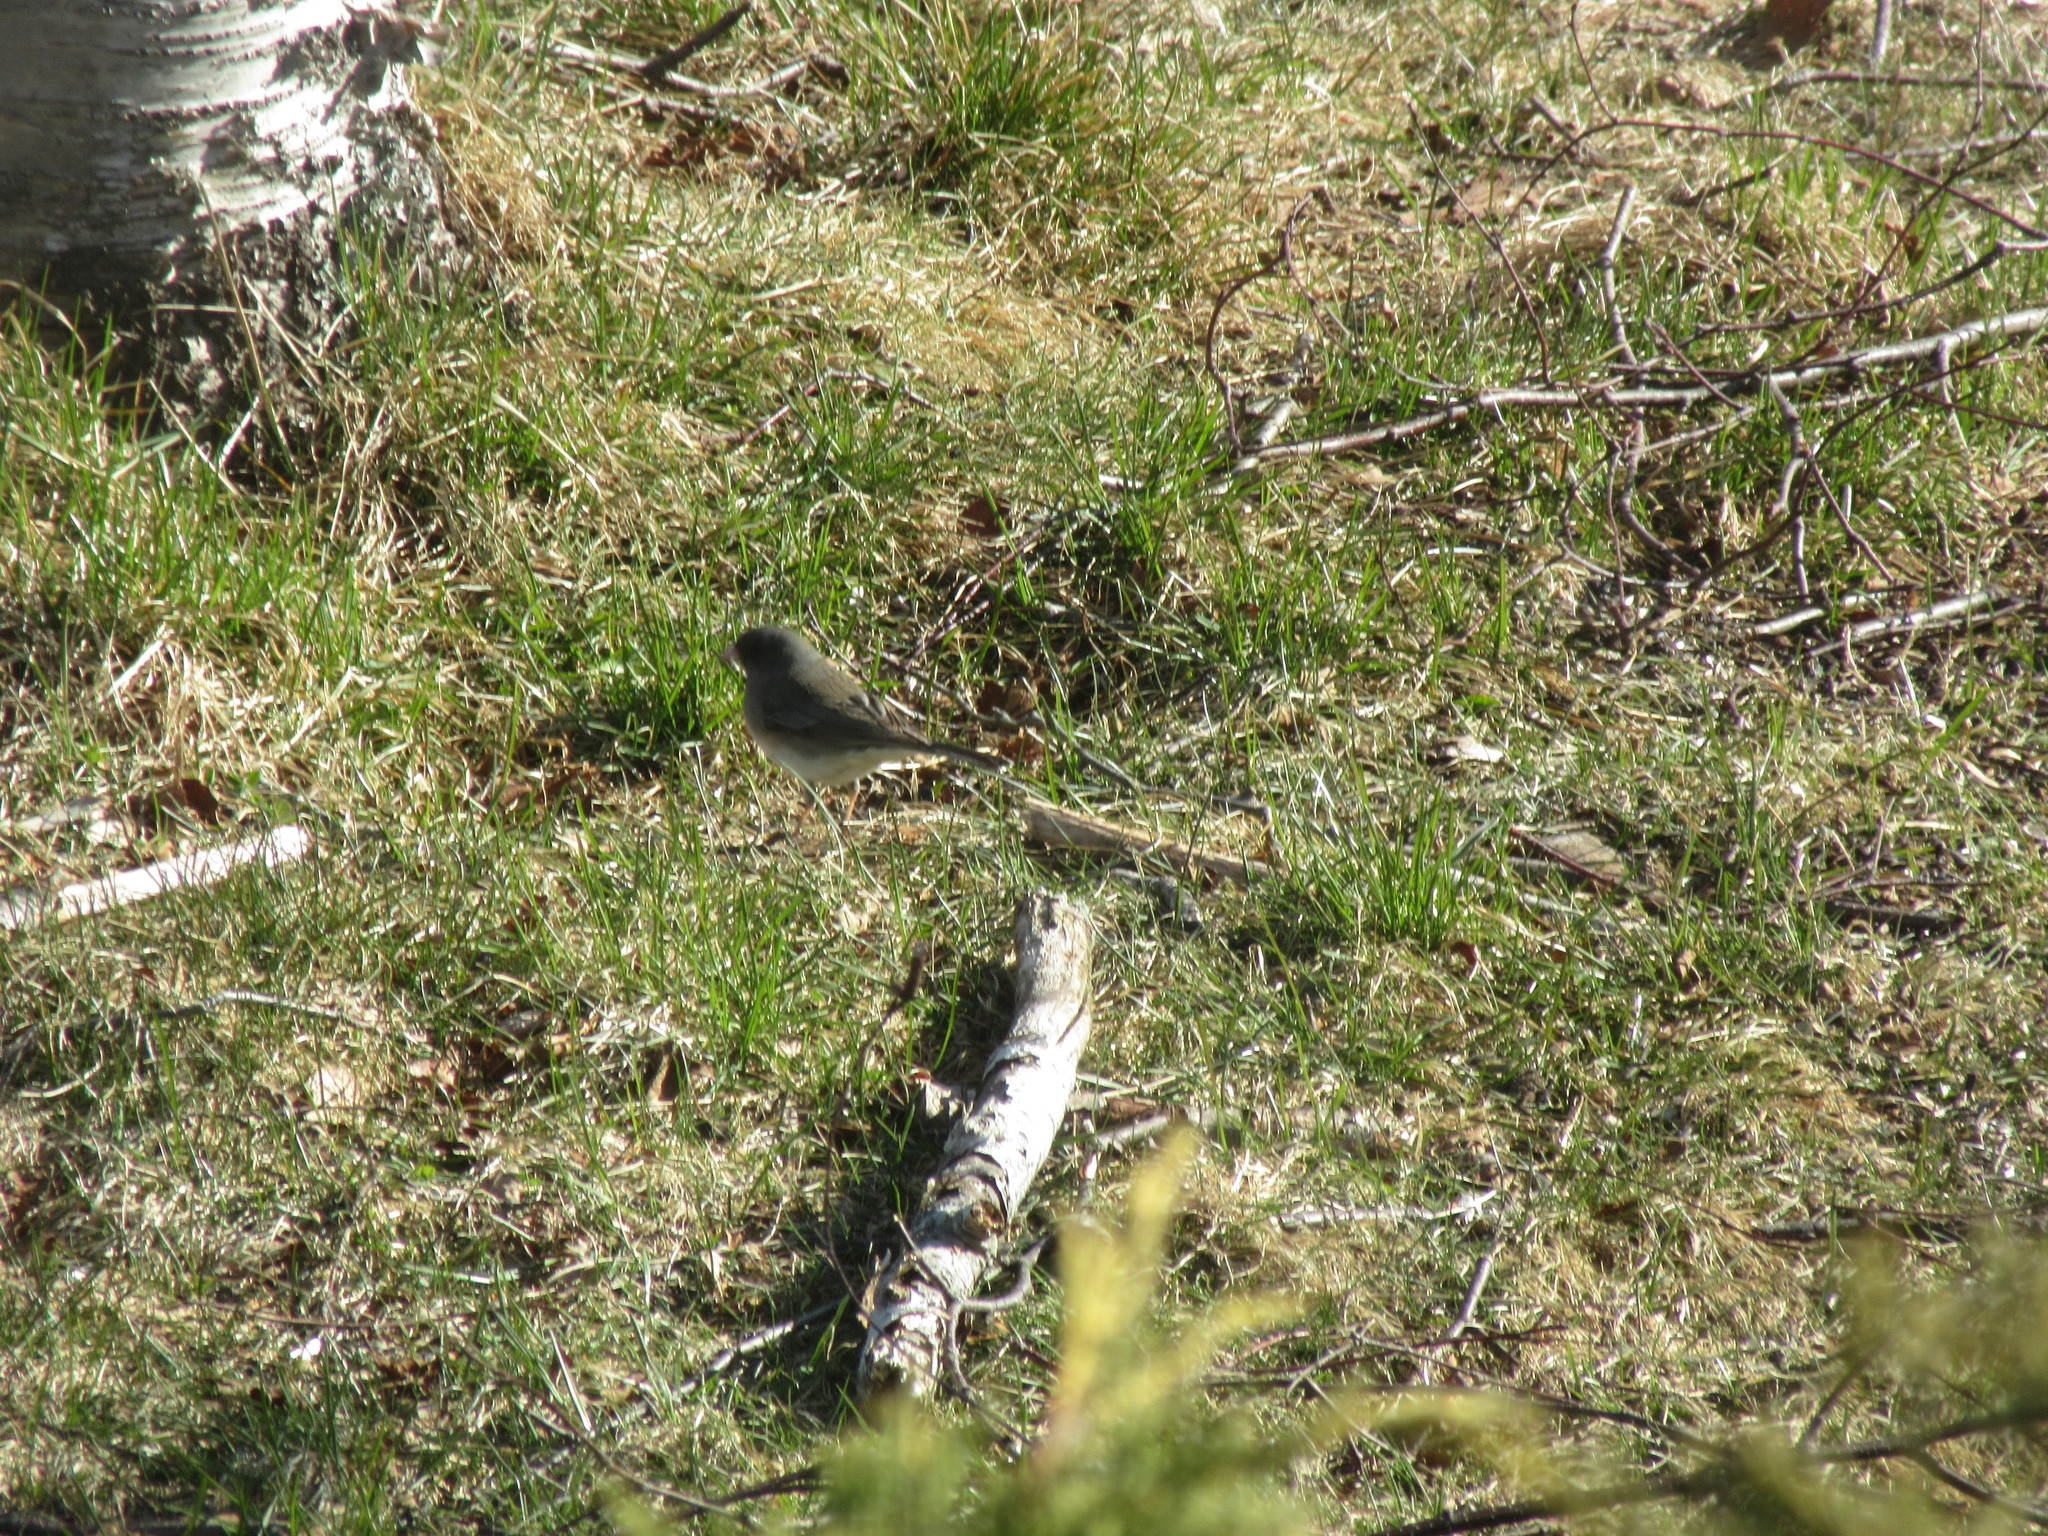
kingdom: Animalia
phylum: Chordata
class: Aves
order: Passeriformes
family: Passerellidae
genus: Junco
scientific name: Junco hyemalis
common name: Dark-eyed junco
